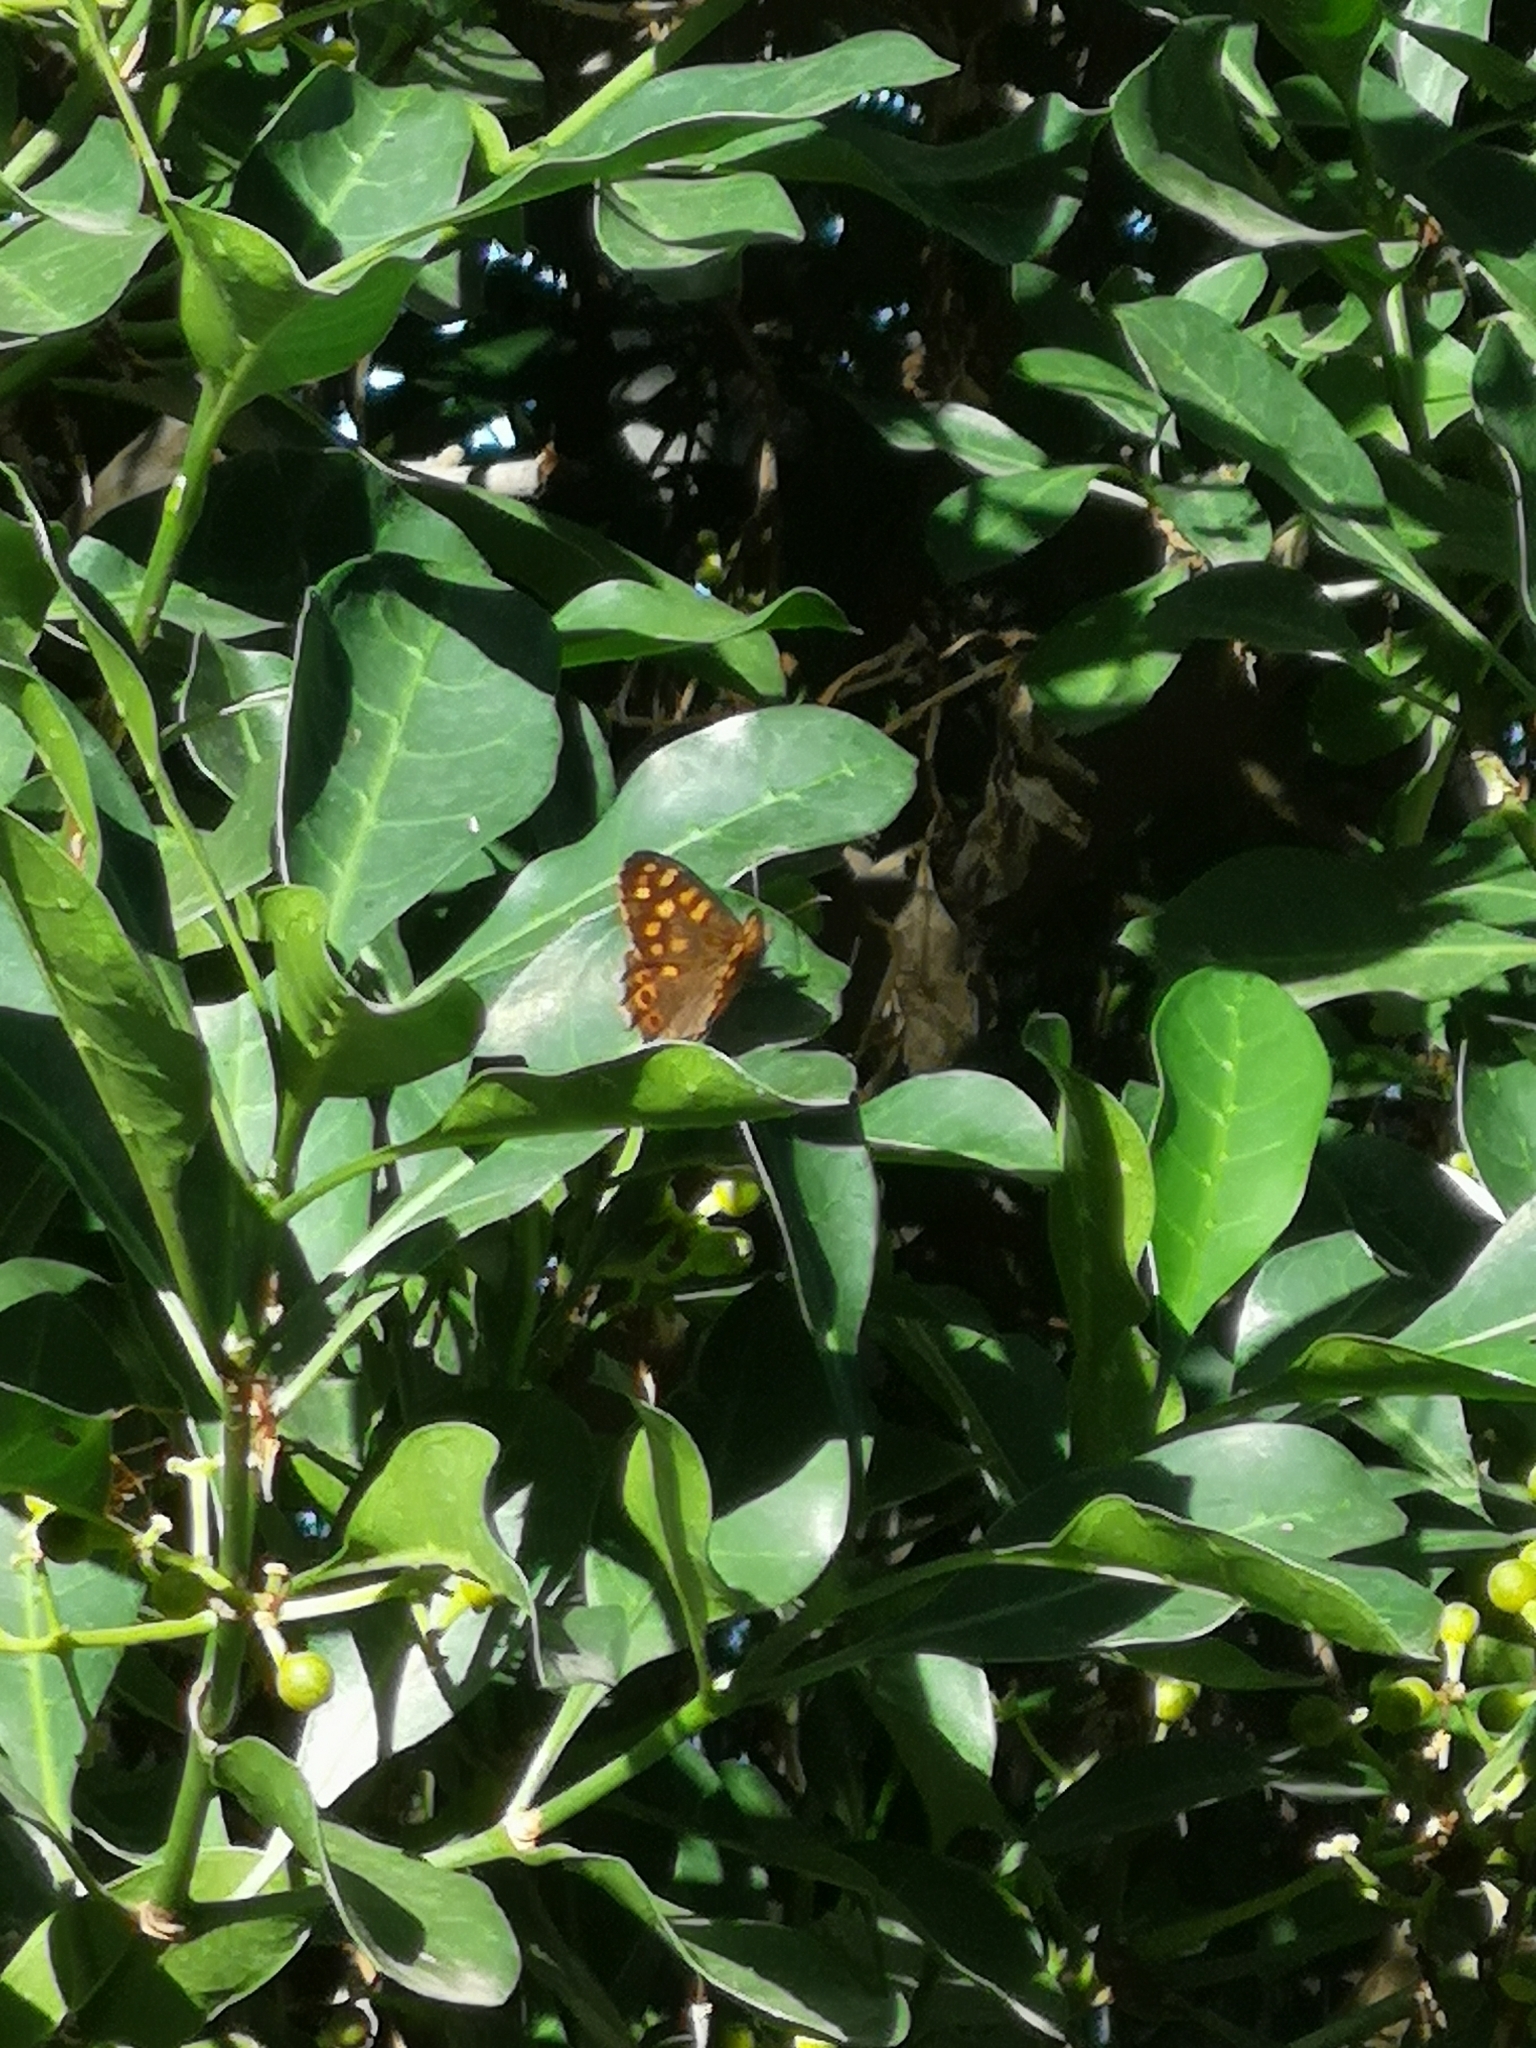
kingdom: Animalia
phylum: Arthropoda
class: Insecta
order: Lepidoptera
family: Nymphalidae
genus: Pararge
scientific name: Pararge aegeria
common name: Speckled wood
